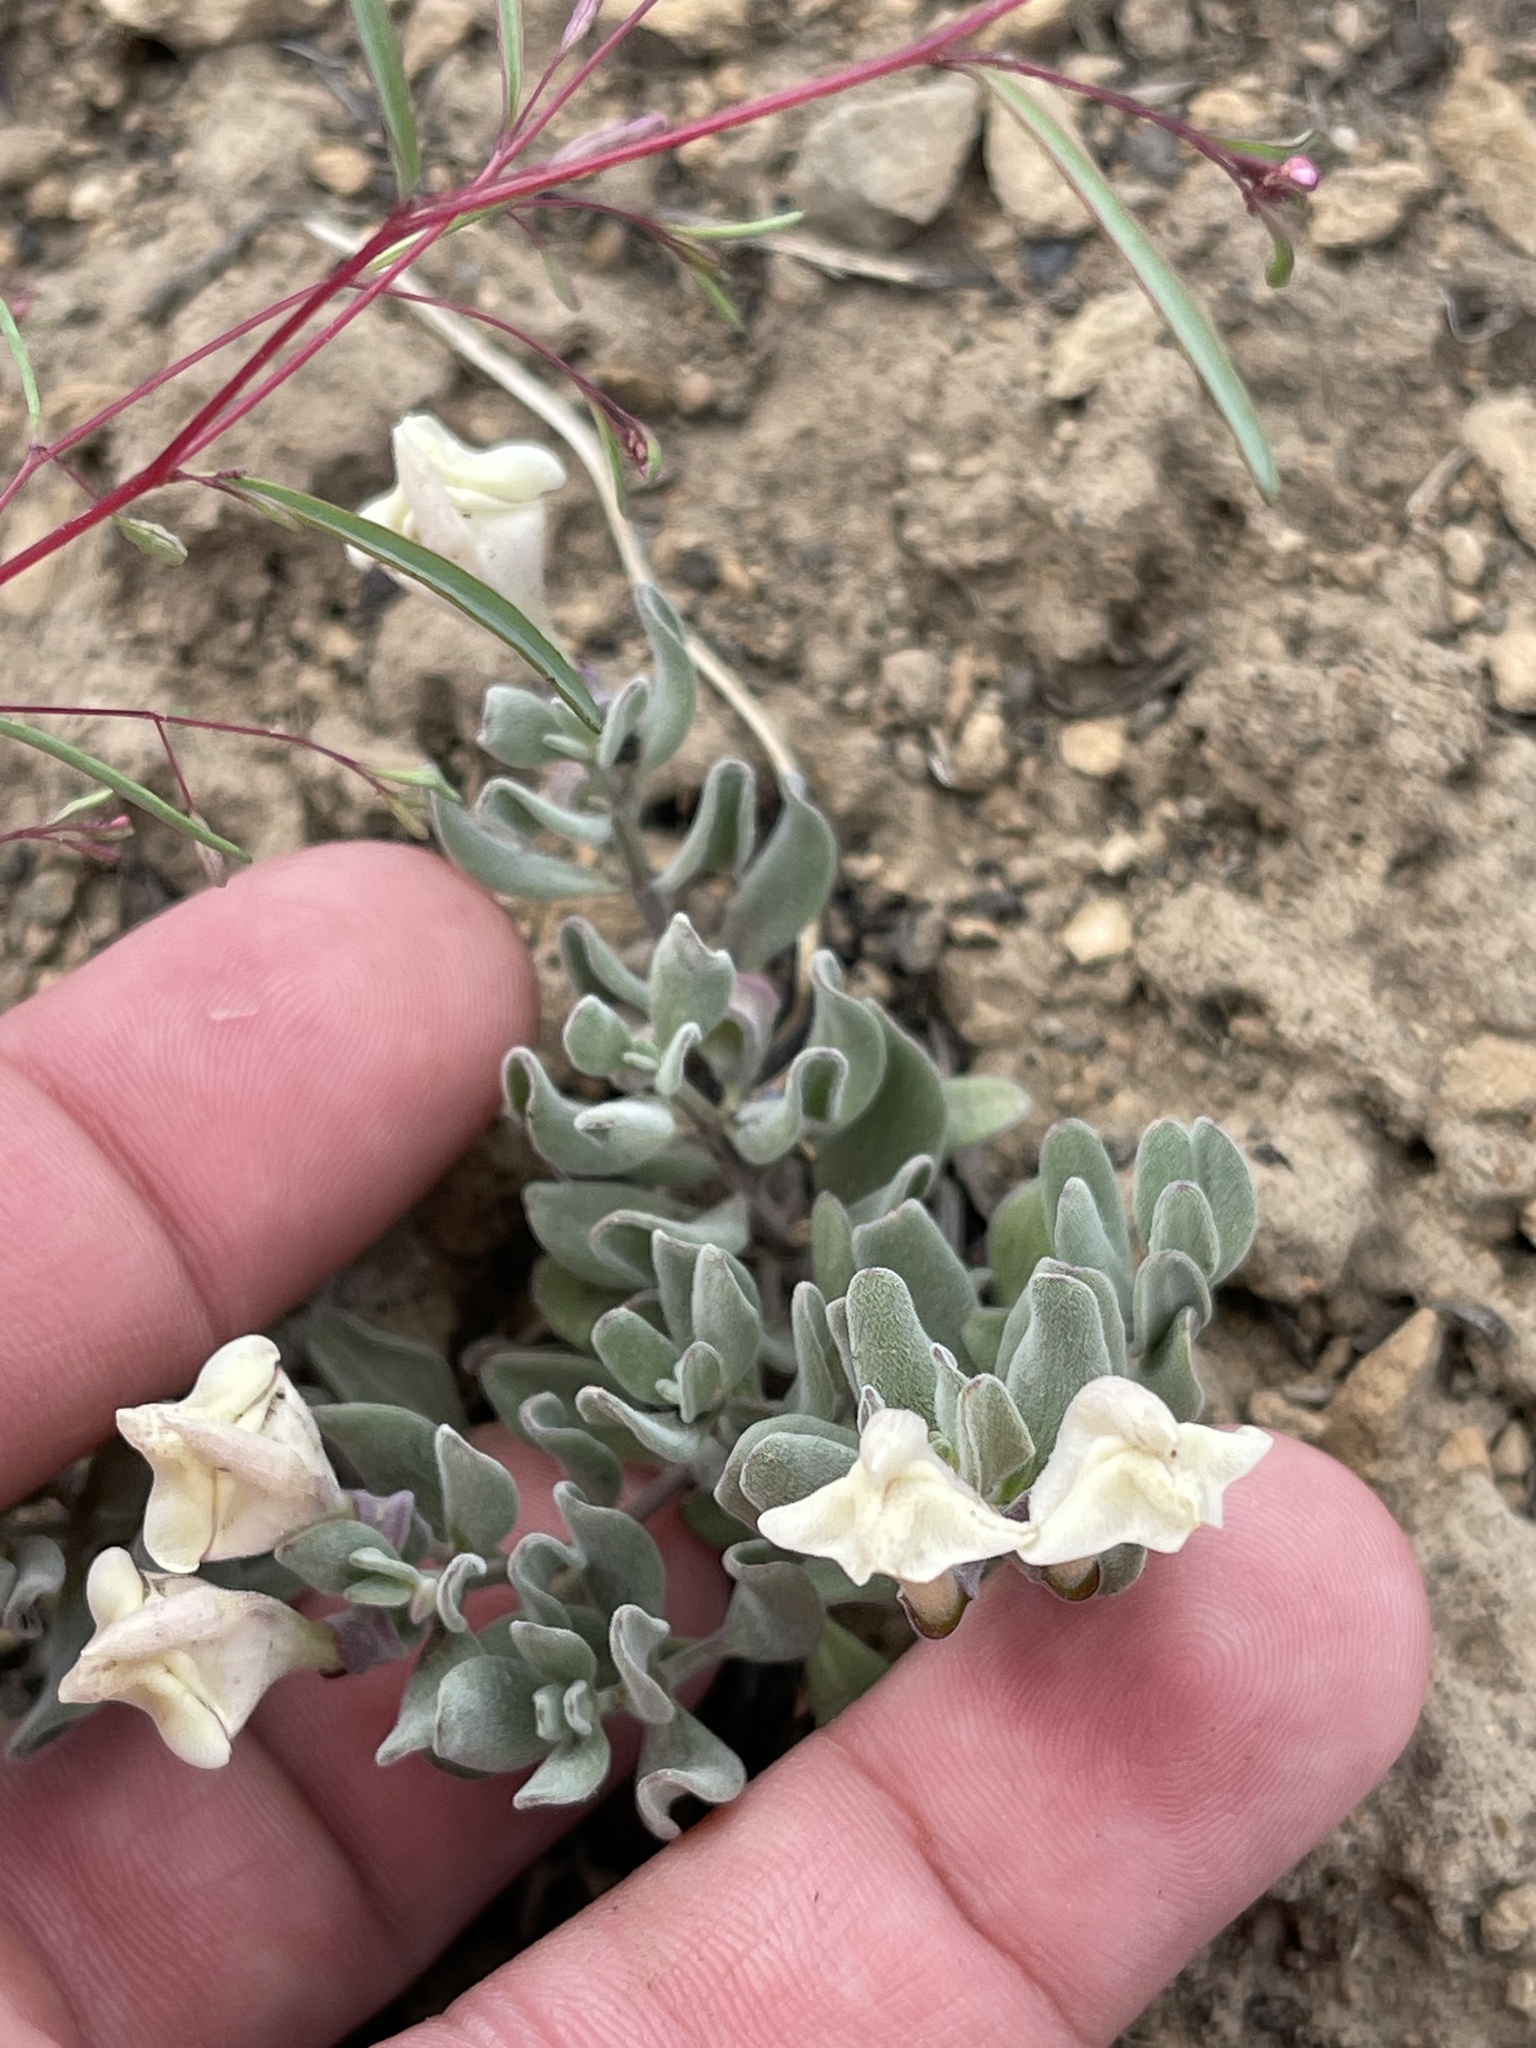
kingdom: Plantae
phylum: Tracheophyta
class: Magnoliopsida
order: Lamiales
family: Lamiaceae
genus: Scutellaria
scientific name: Scutellaria nana
